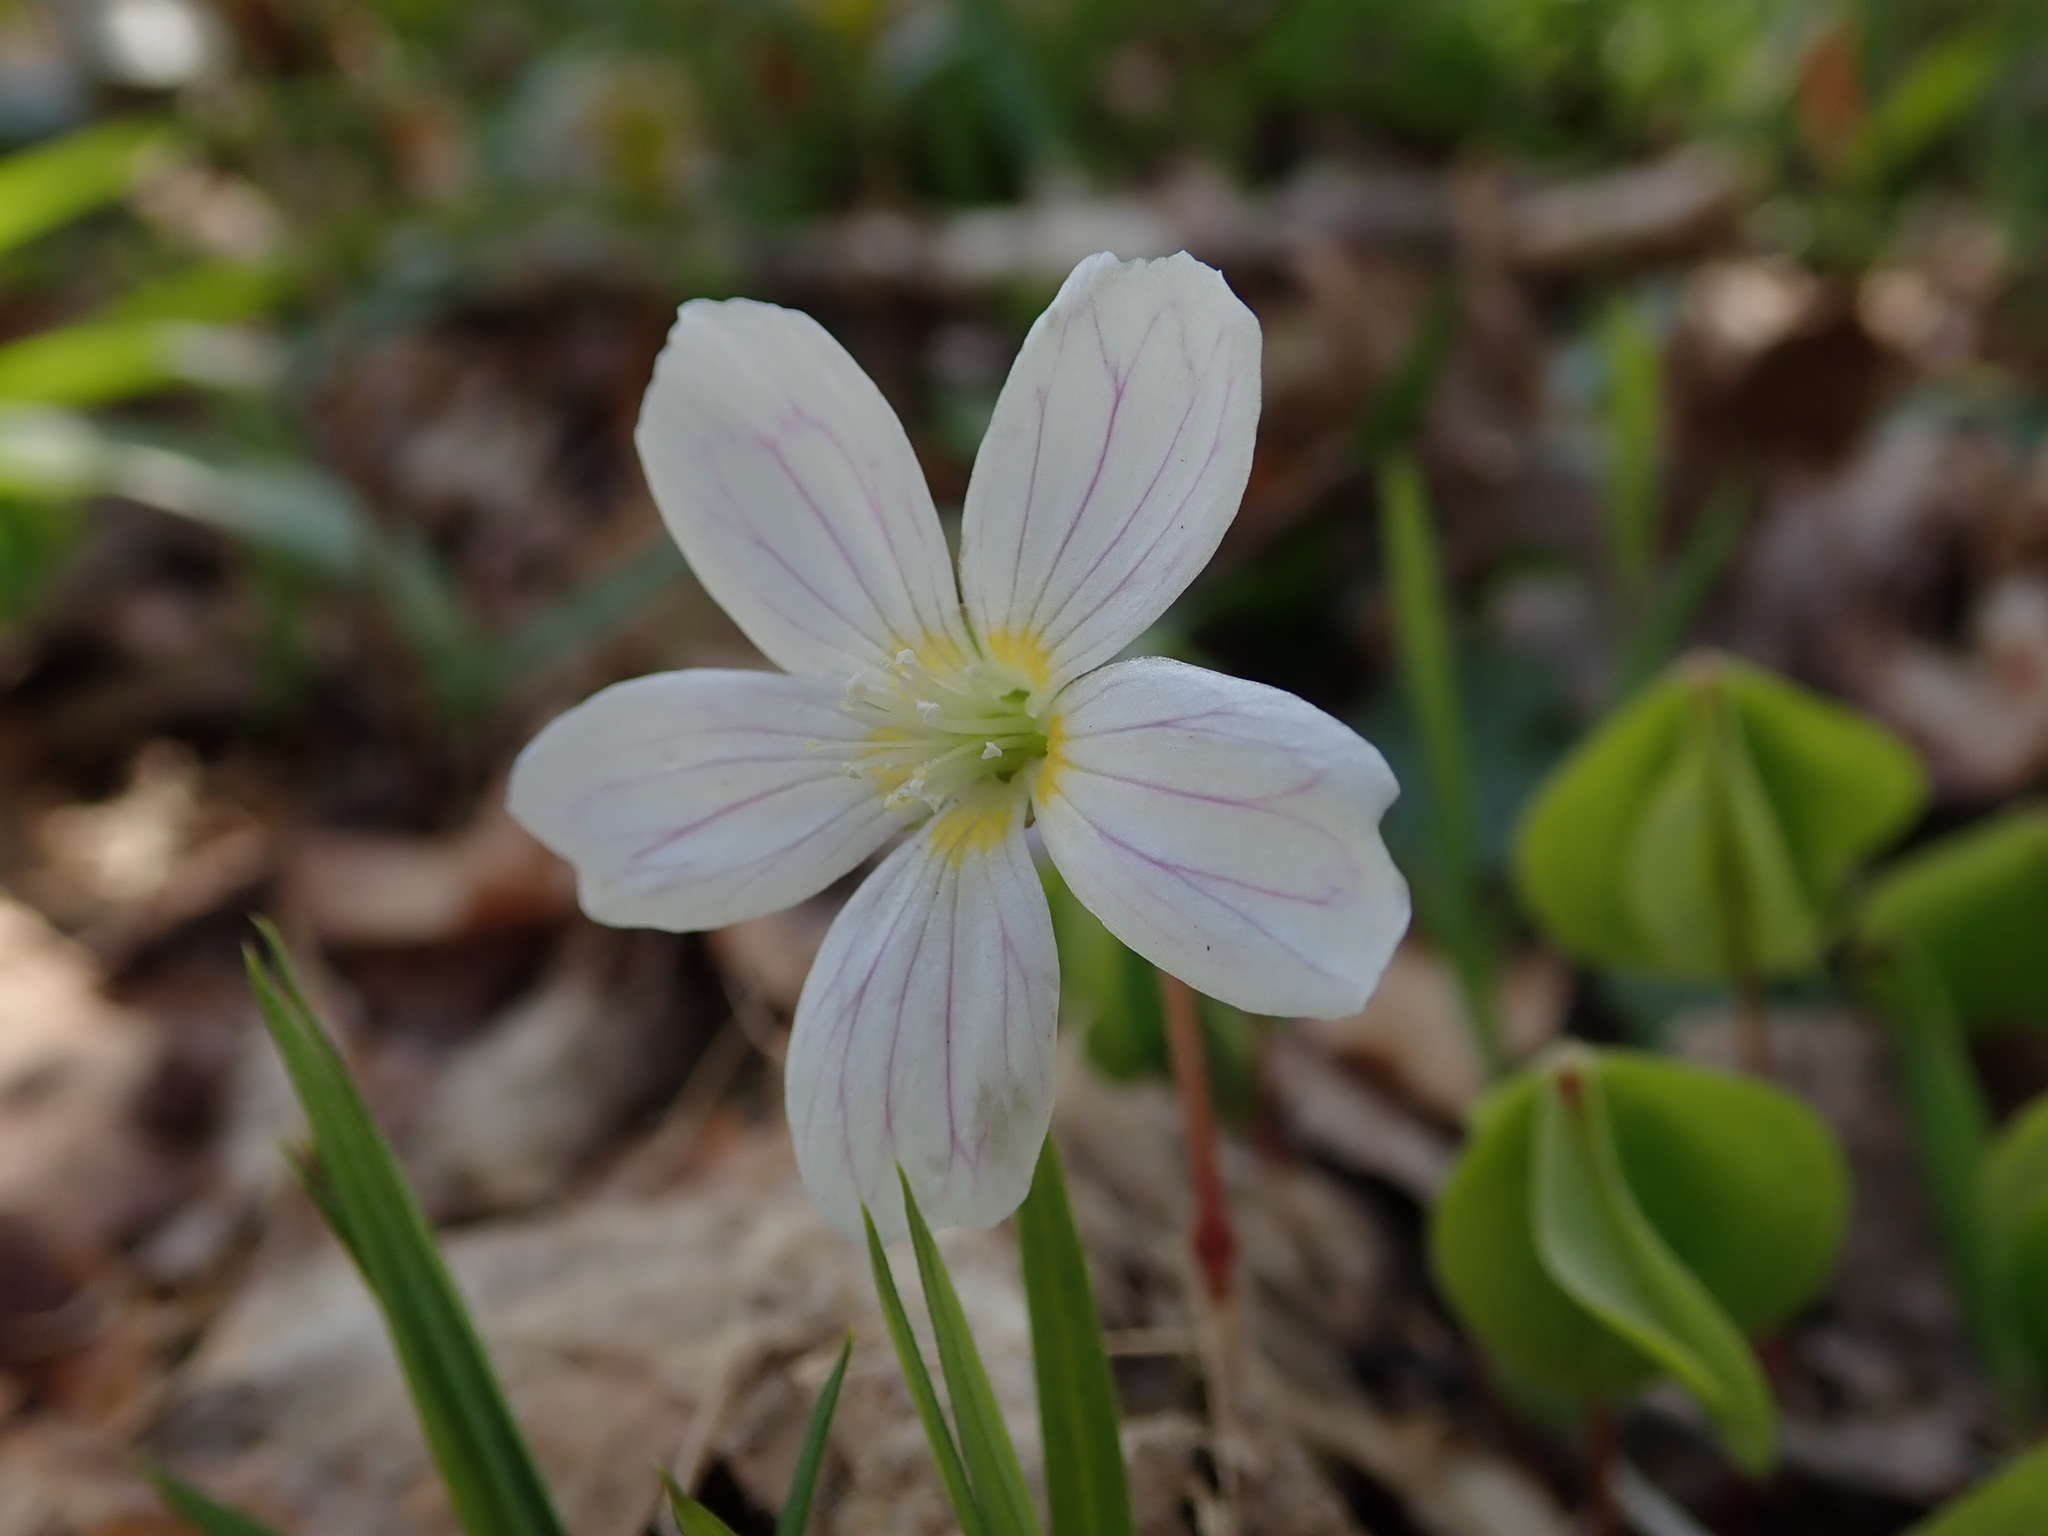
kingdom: Plantae
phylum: Tracheophyta
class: Magnoliopsida
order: Oxalidales
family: Oxalidaceae
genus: Oxalis
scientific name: Oxalis acetosella
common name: Wood-sorrel
